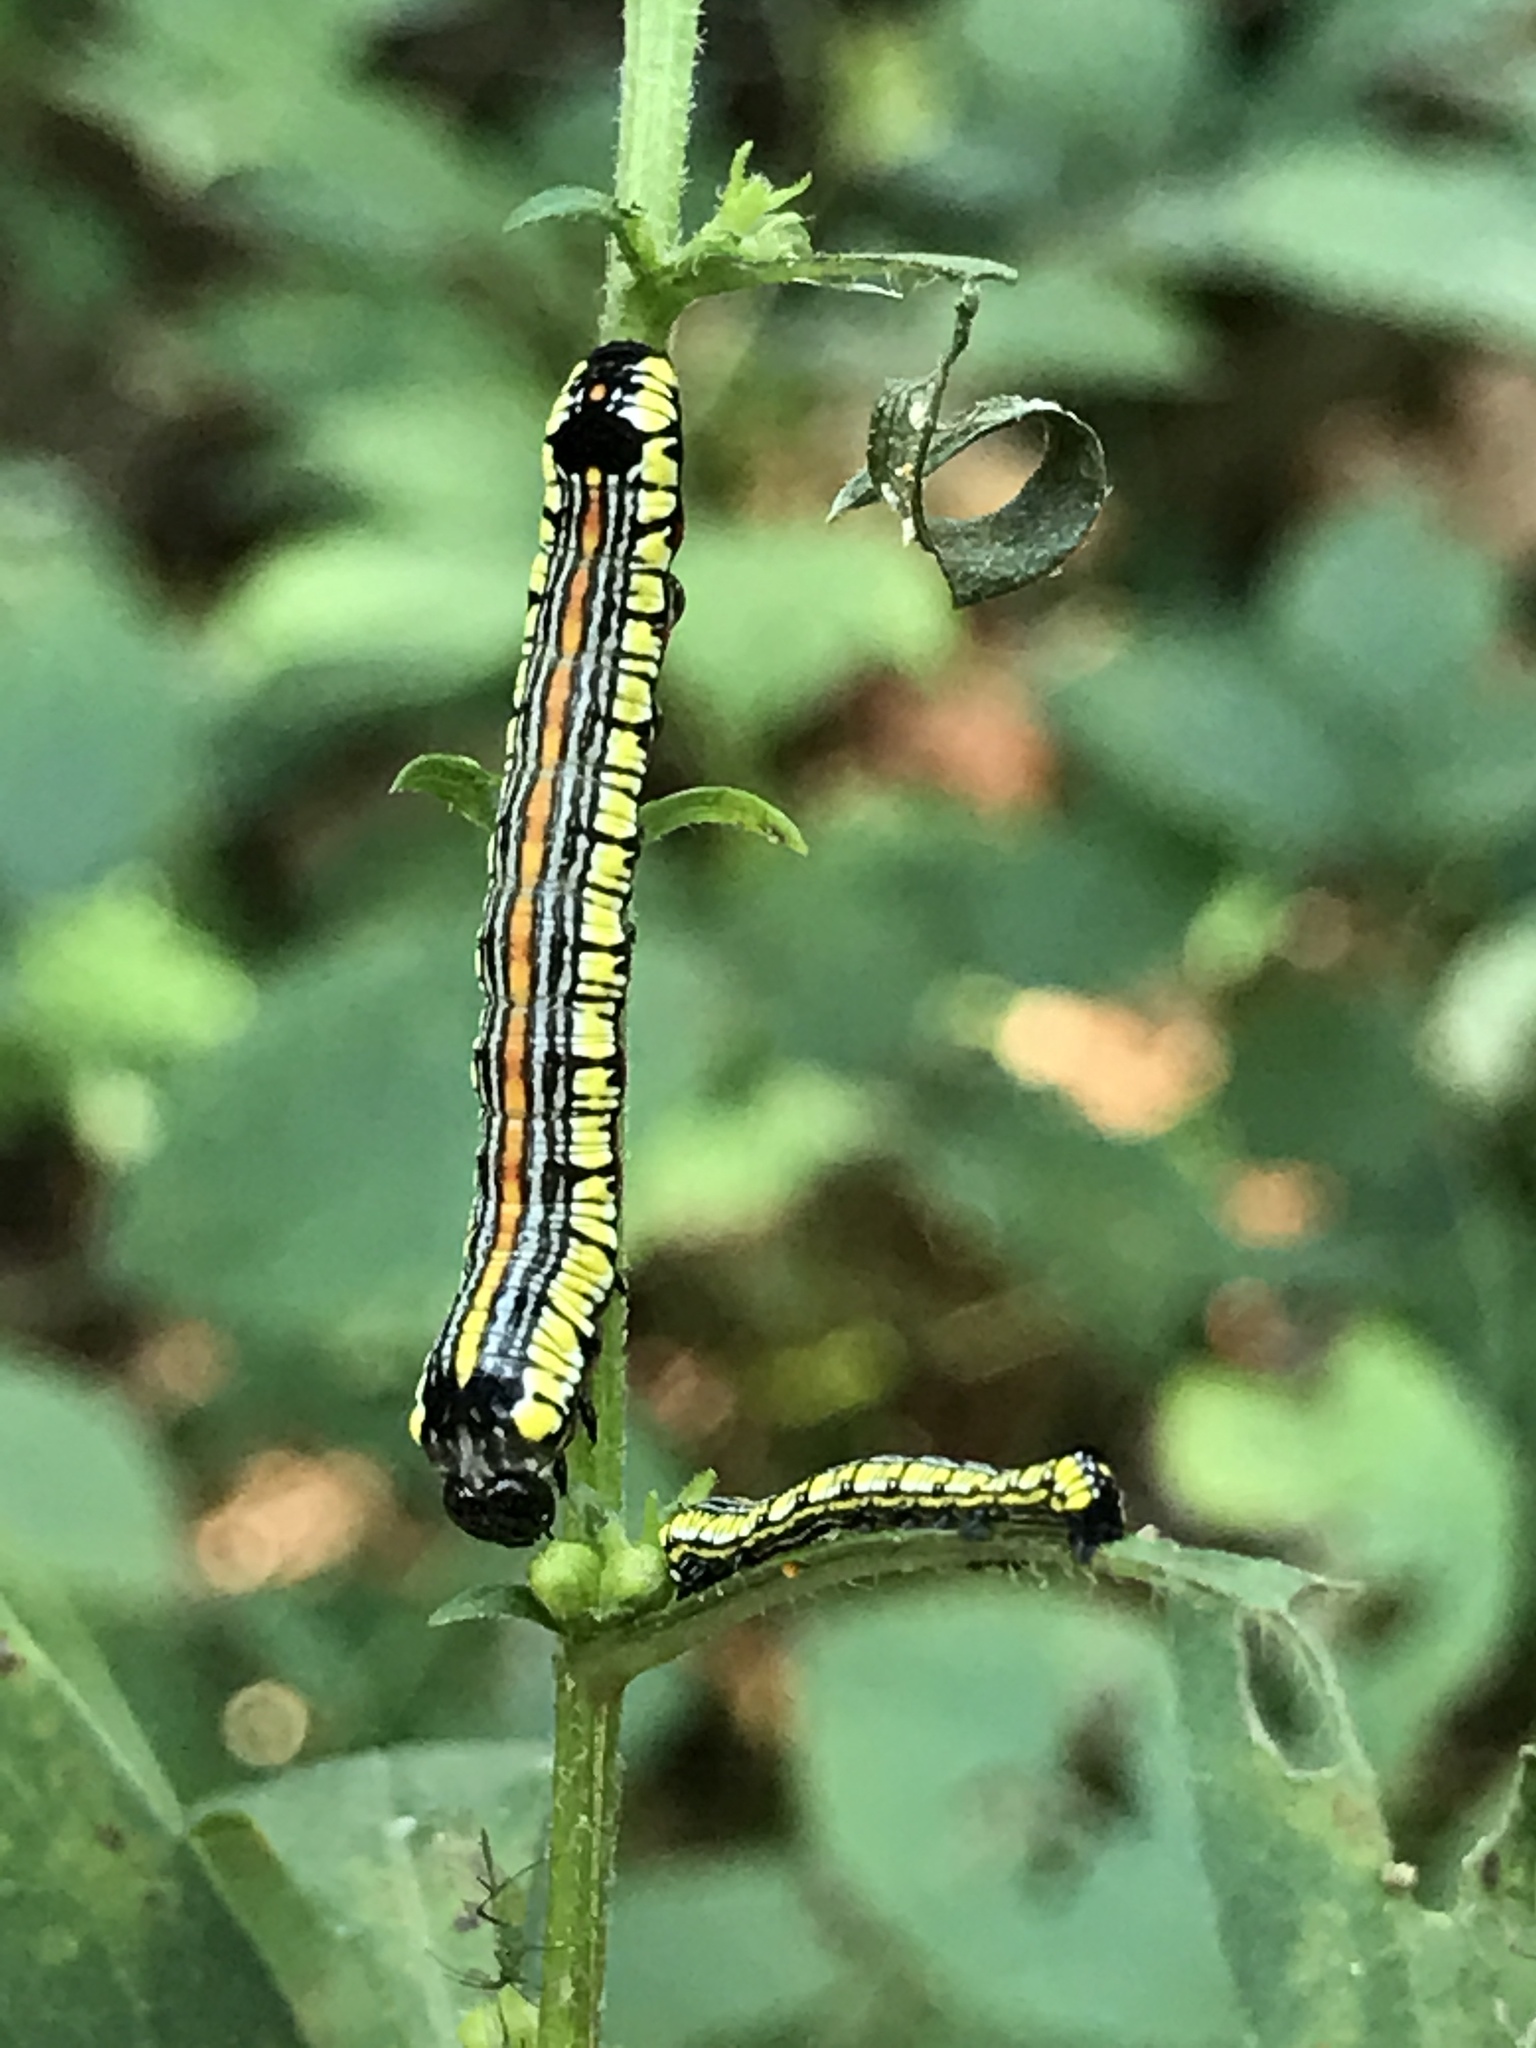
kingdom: Animalia
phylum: Arthropoda
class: Insecta
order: Lepidoptera
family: Noctuidae
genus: Cucullia
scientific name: Cucullia convexipennis
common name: Brown-hooded owlet
